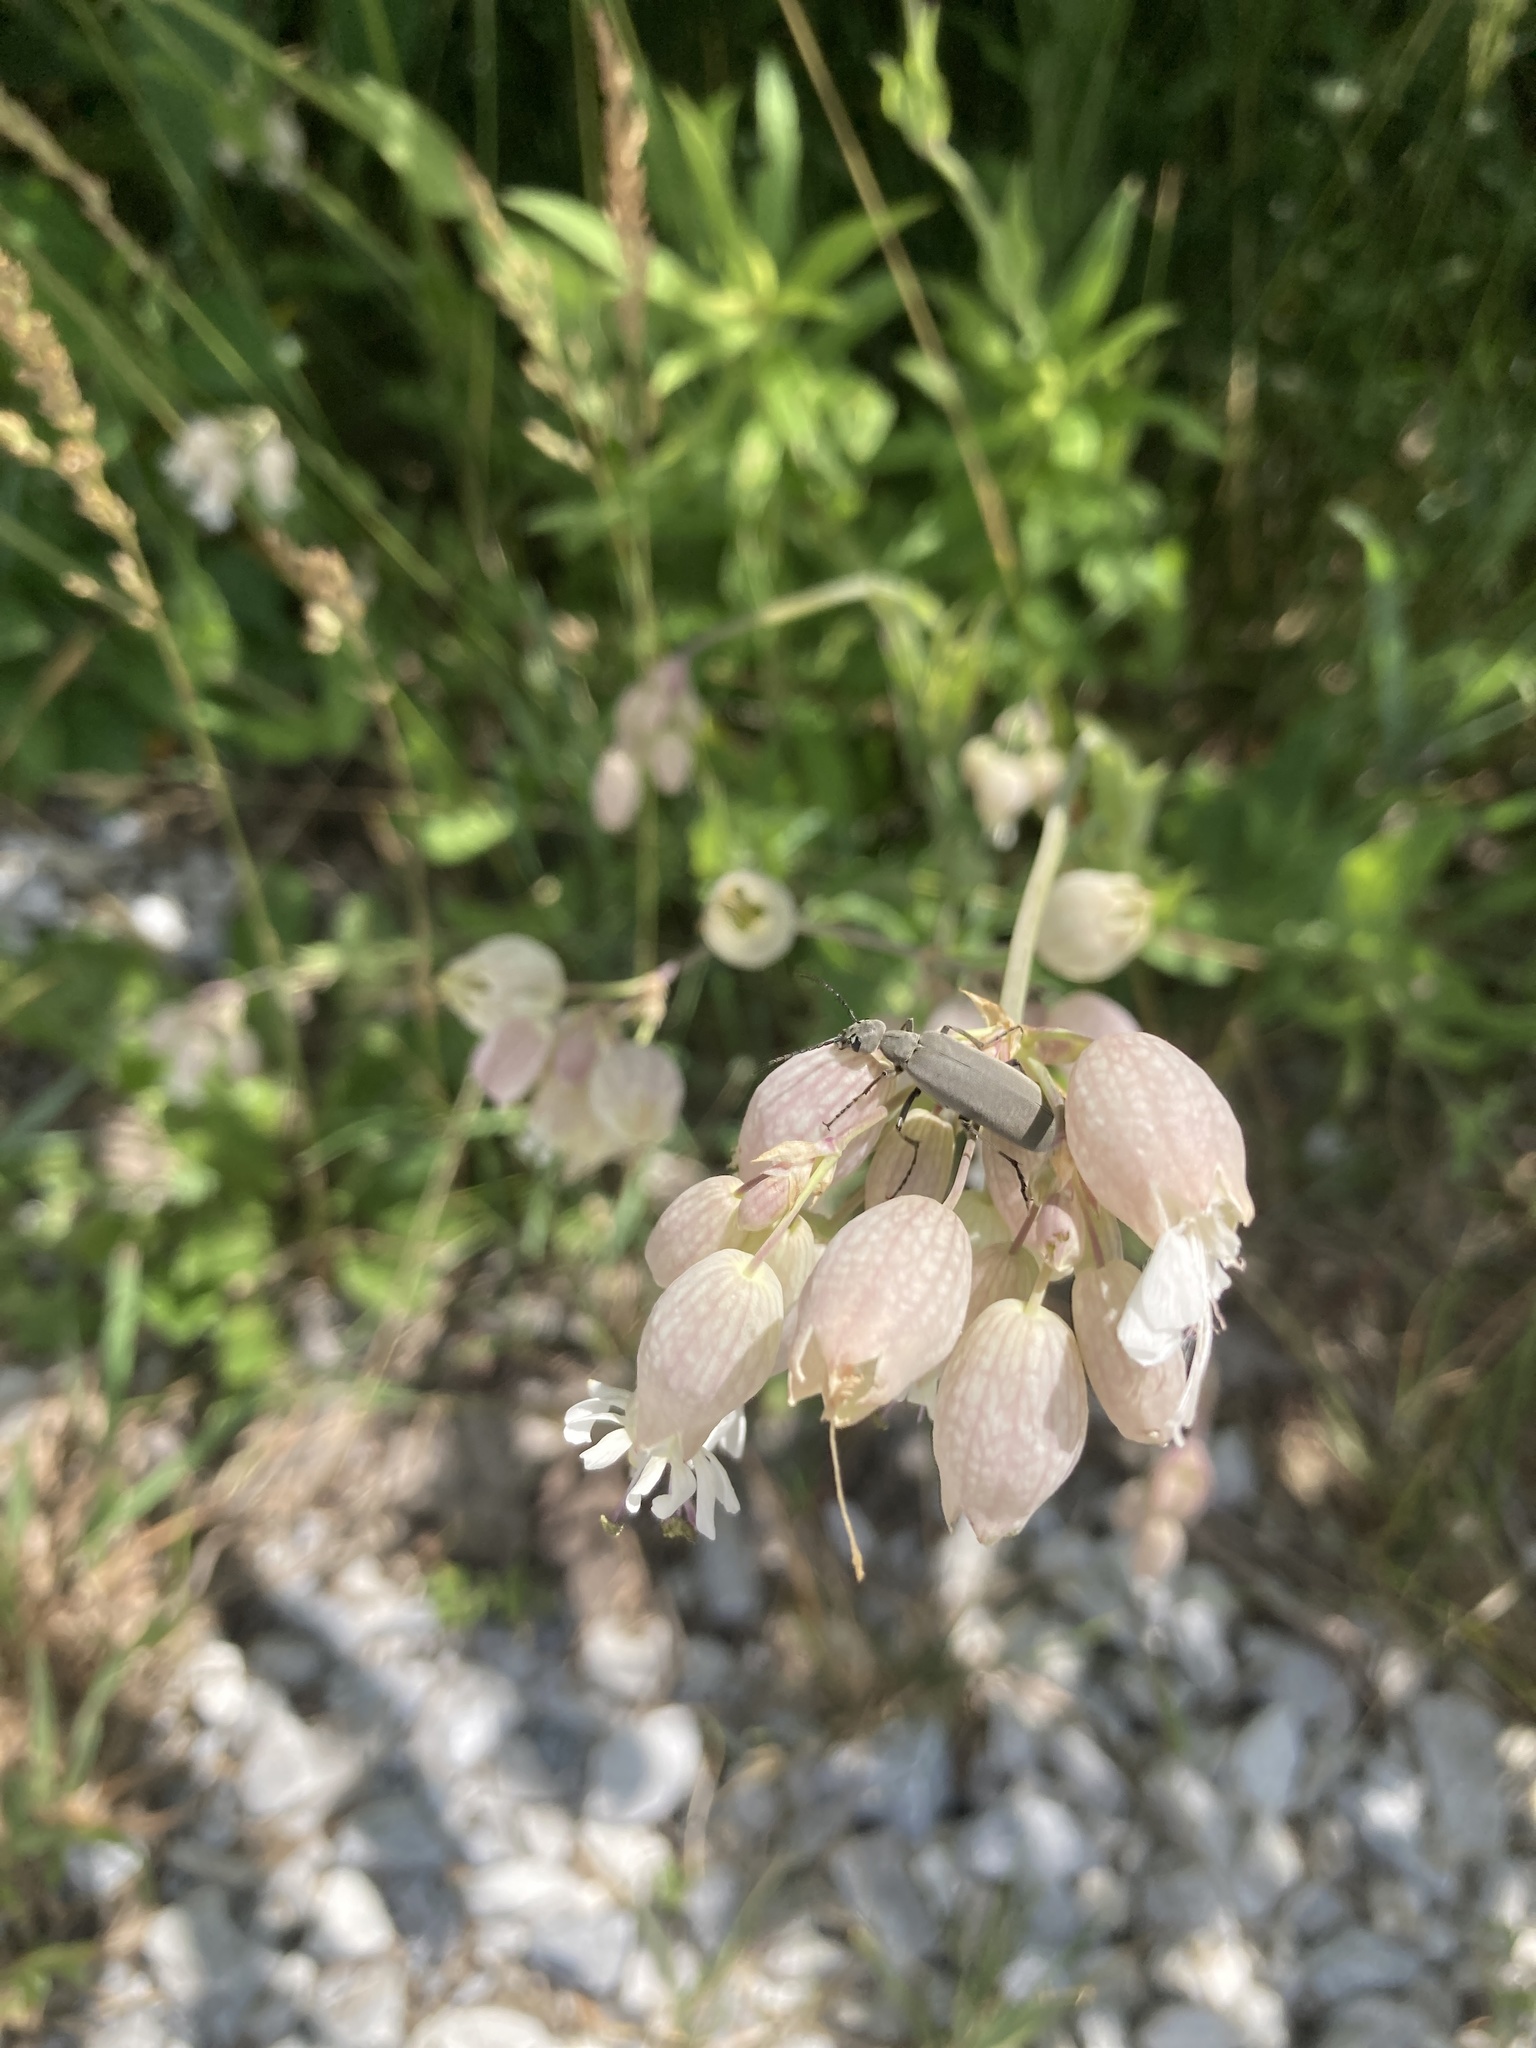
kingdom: Plantae
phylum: Tracheophyta
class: Magnoliopsida
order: Caryophyllales
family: Caryophyllaceae
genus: Silene
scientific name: Silene vulgaris
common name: Bladder campion
